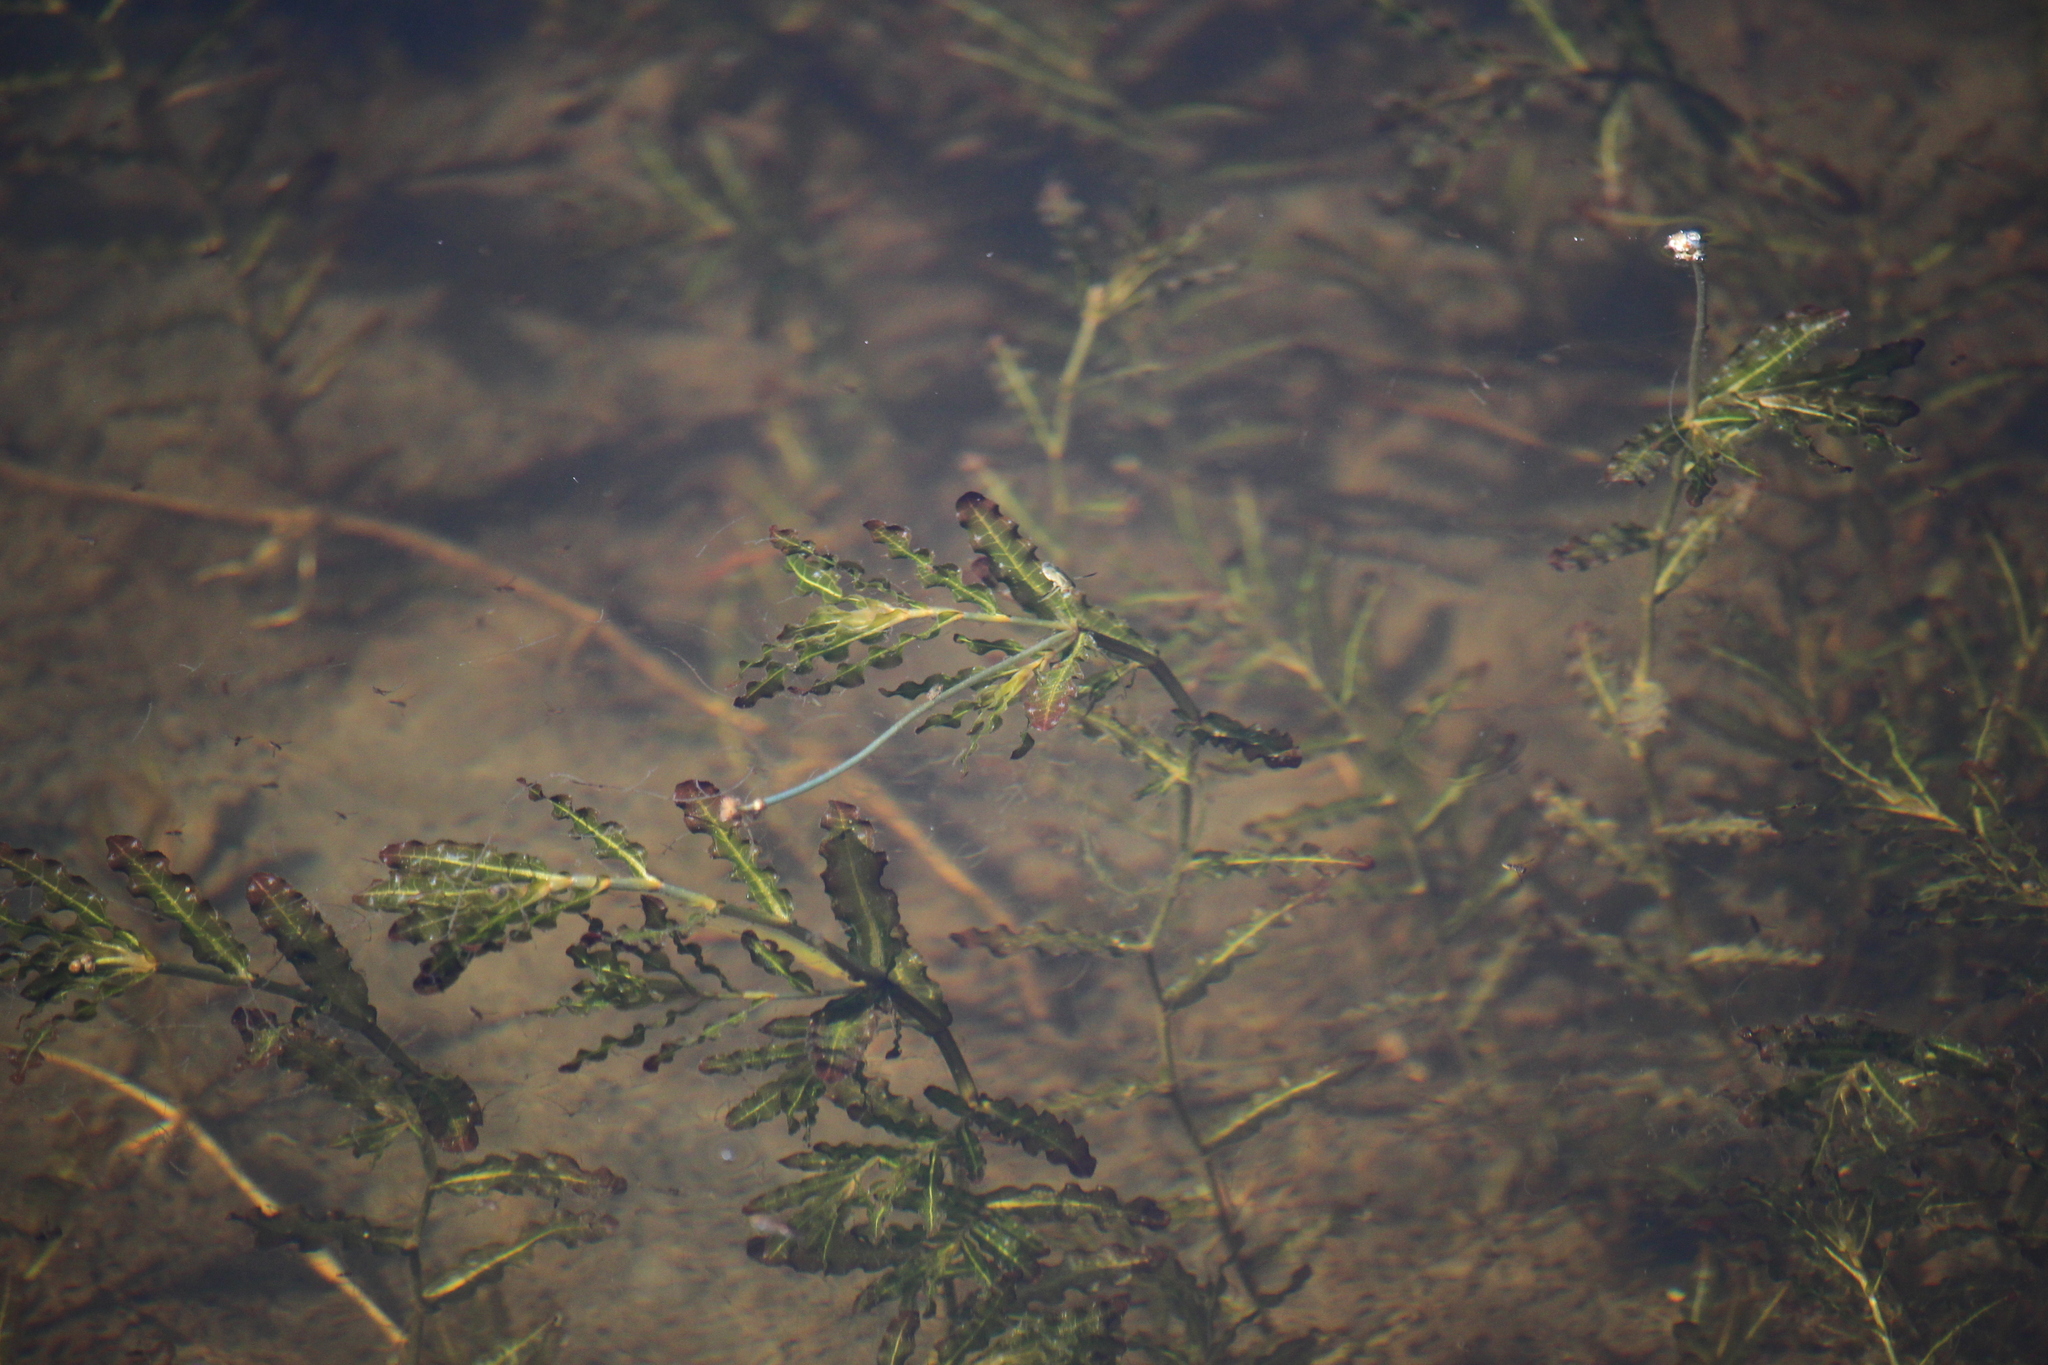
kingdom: Plantae
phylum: Tracheophyta
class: Liliopsida
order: Alismatales
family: Potamogetonaceae
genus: Potamogeton
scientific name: Potamogeton crispus
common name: Curled pondweed
